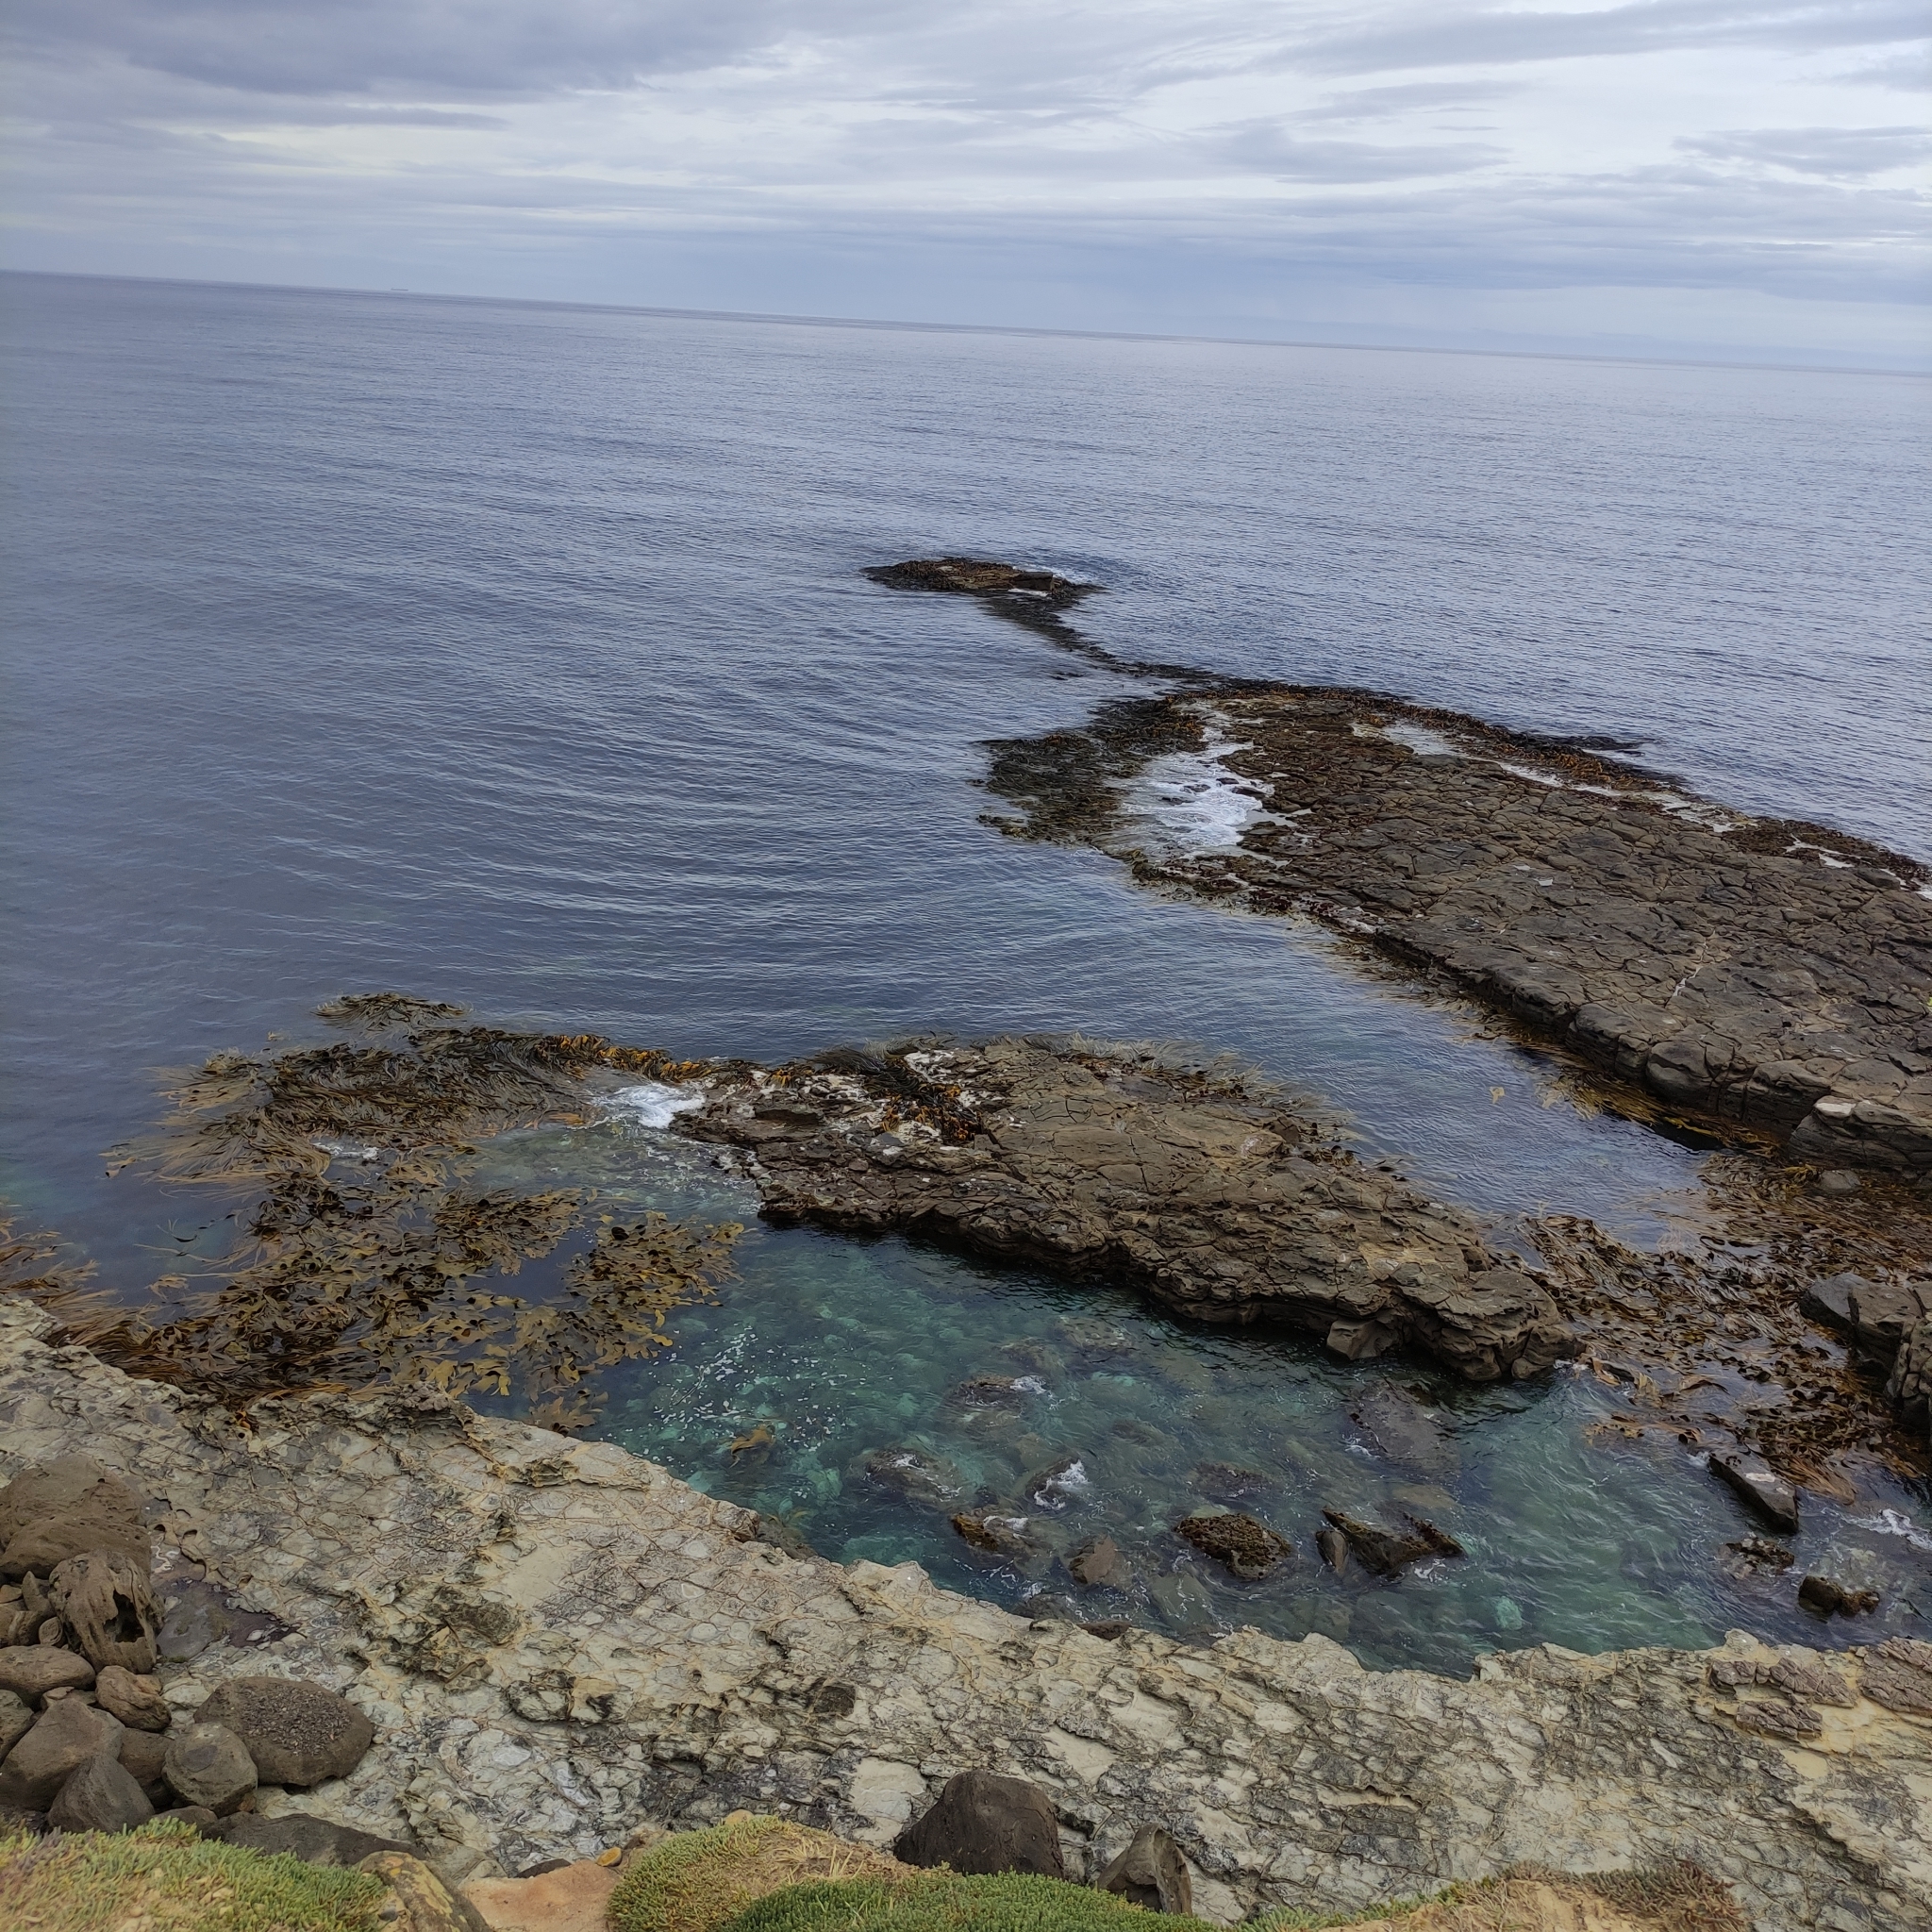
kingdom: Chromista
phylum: Ochrophyta
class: Phaeophyceae
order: Fucales
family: Durvillaeaceae
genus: Durvillaea
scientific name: Durvillaea poha
